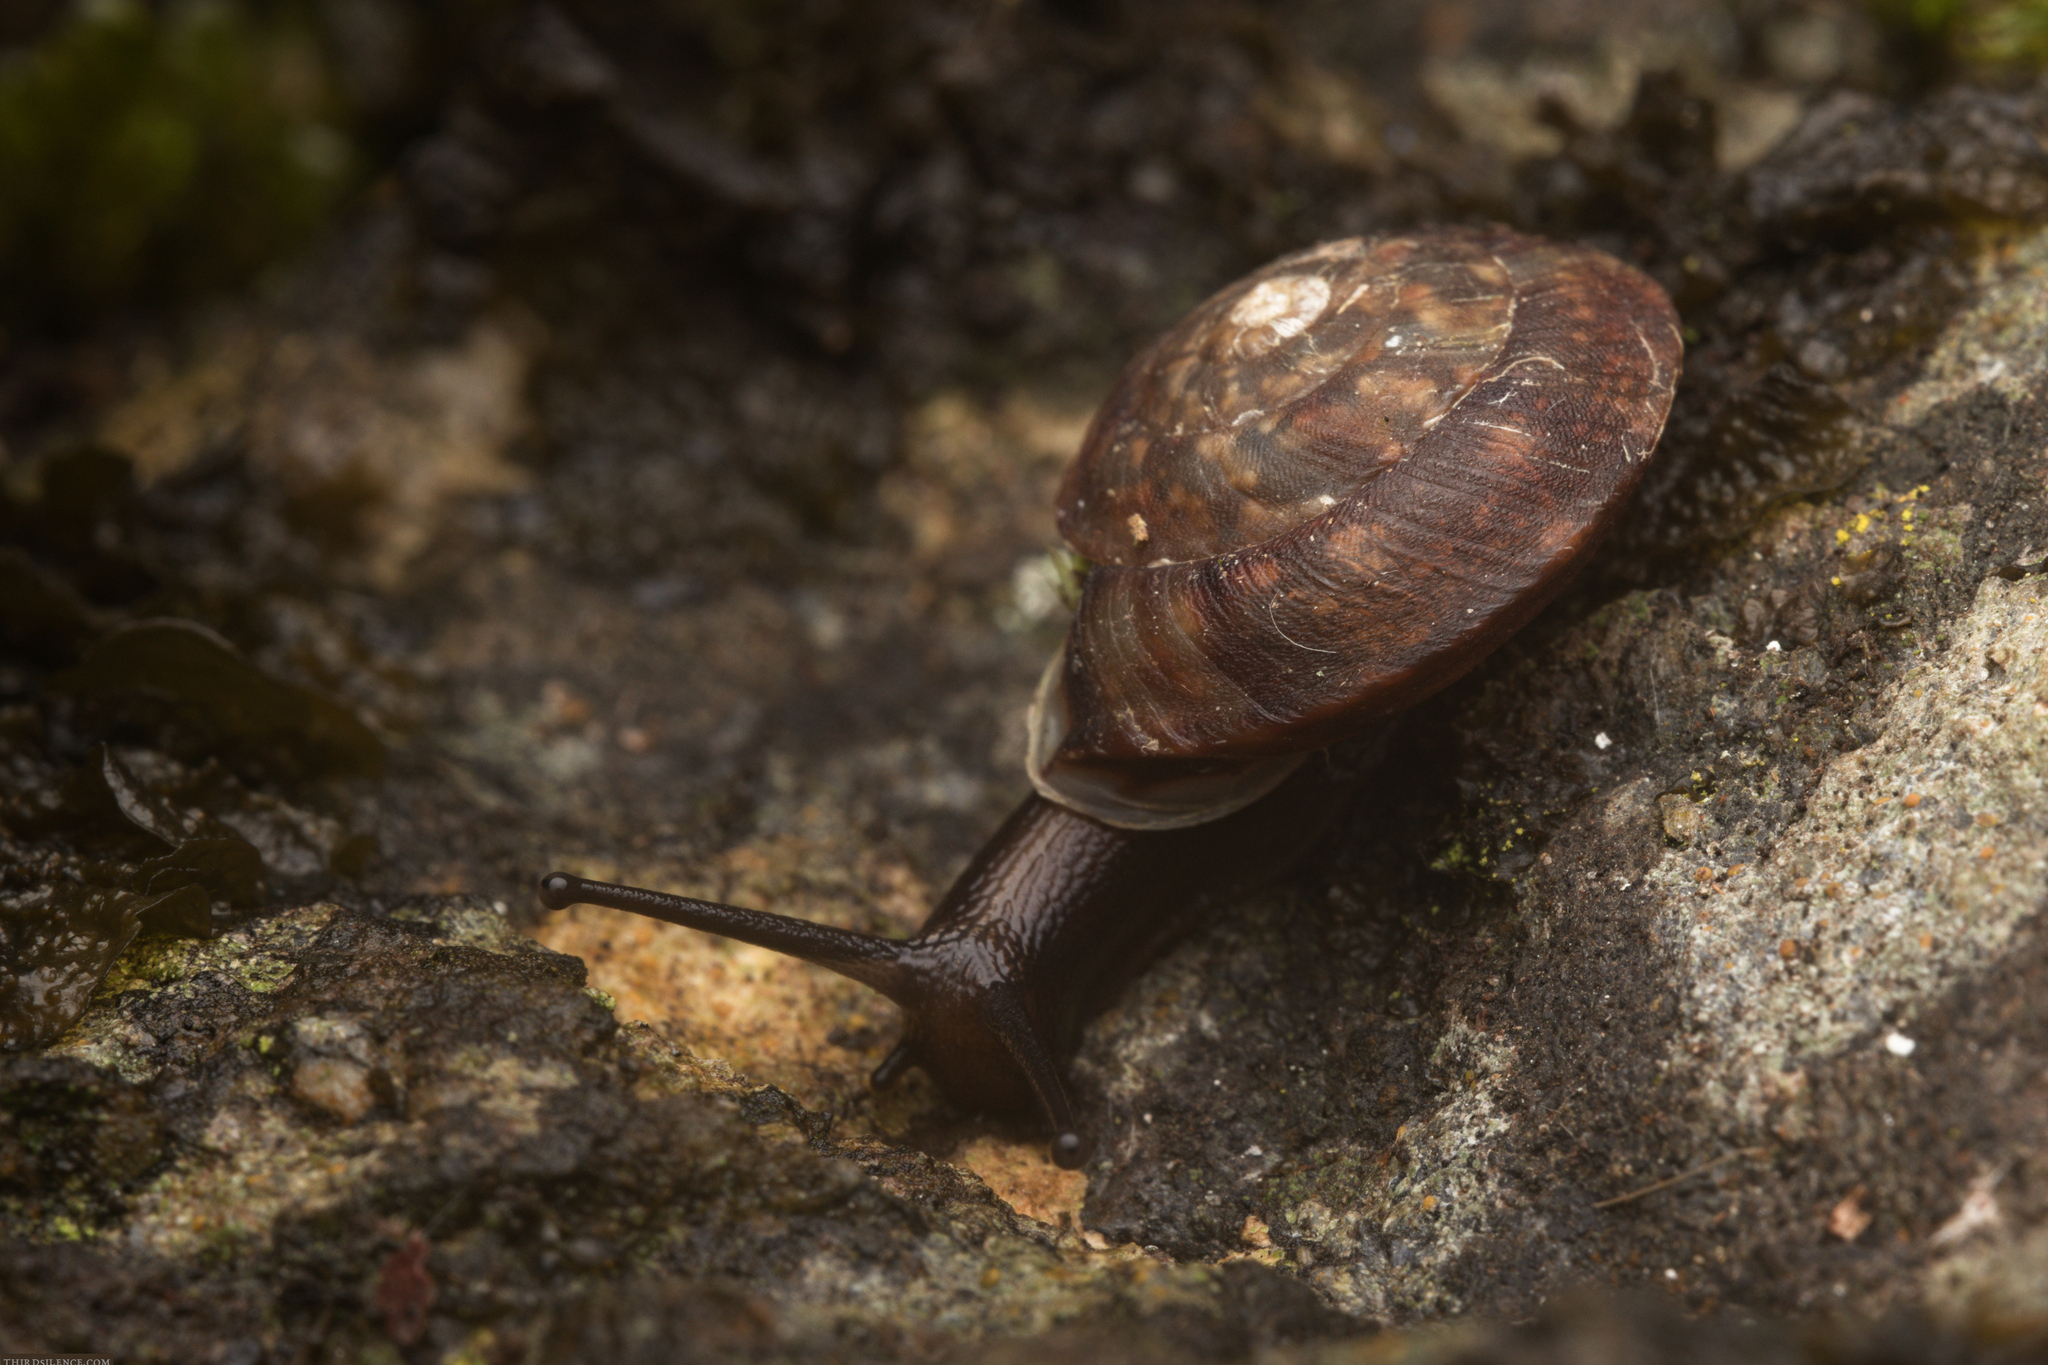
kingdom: Animalia
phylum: Mollusca
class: Gastropoda
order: Stylommatophora
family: Helicidae
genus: Helicigona
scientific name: Helicigona lapicida
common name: Lapidary snail
